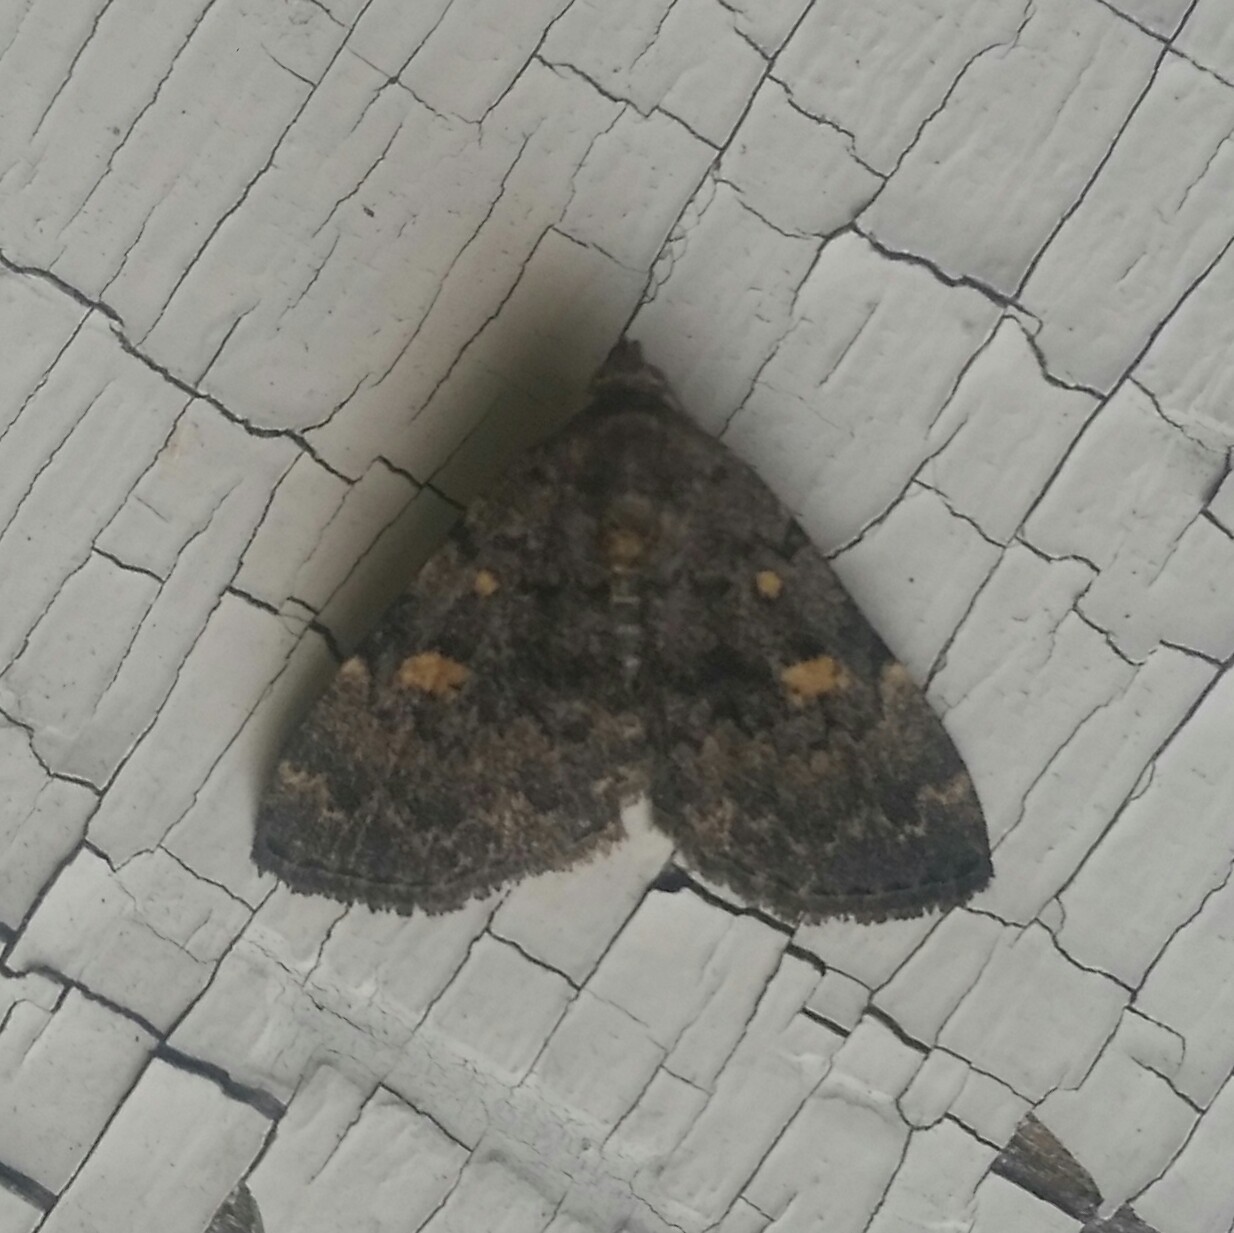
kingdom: Animalia
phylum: Arthropoda
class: Insecta
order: Lepidoptera
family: Erebidae
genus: Idia
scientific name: Idia aemula
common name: Common idia moth
